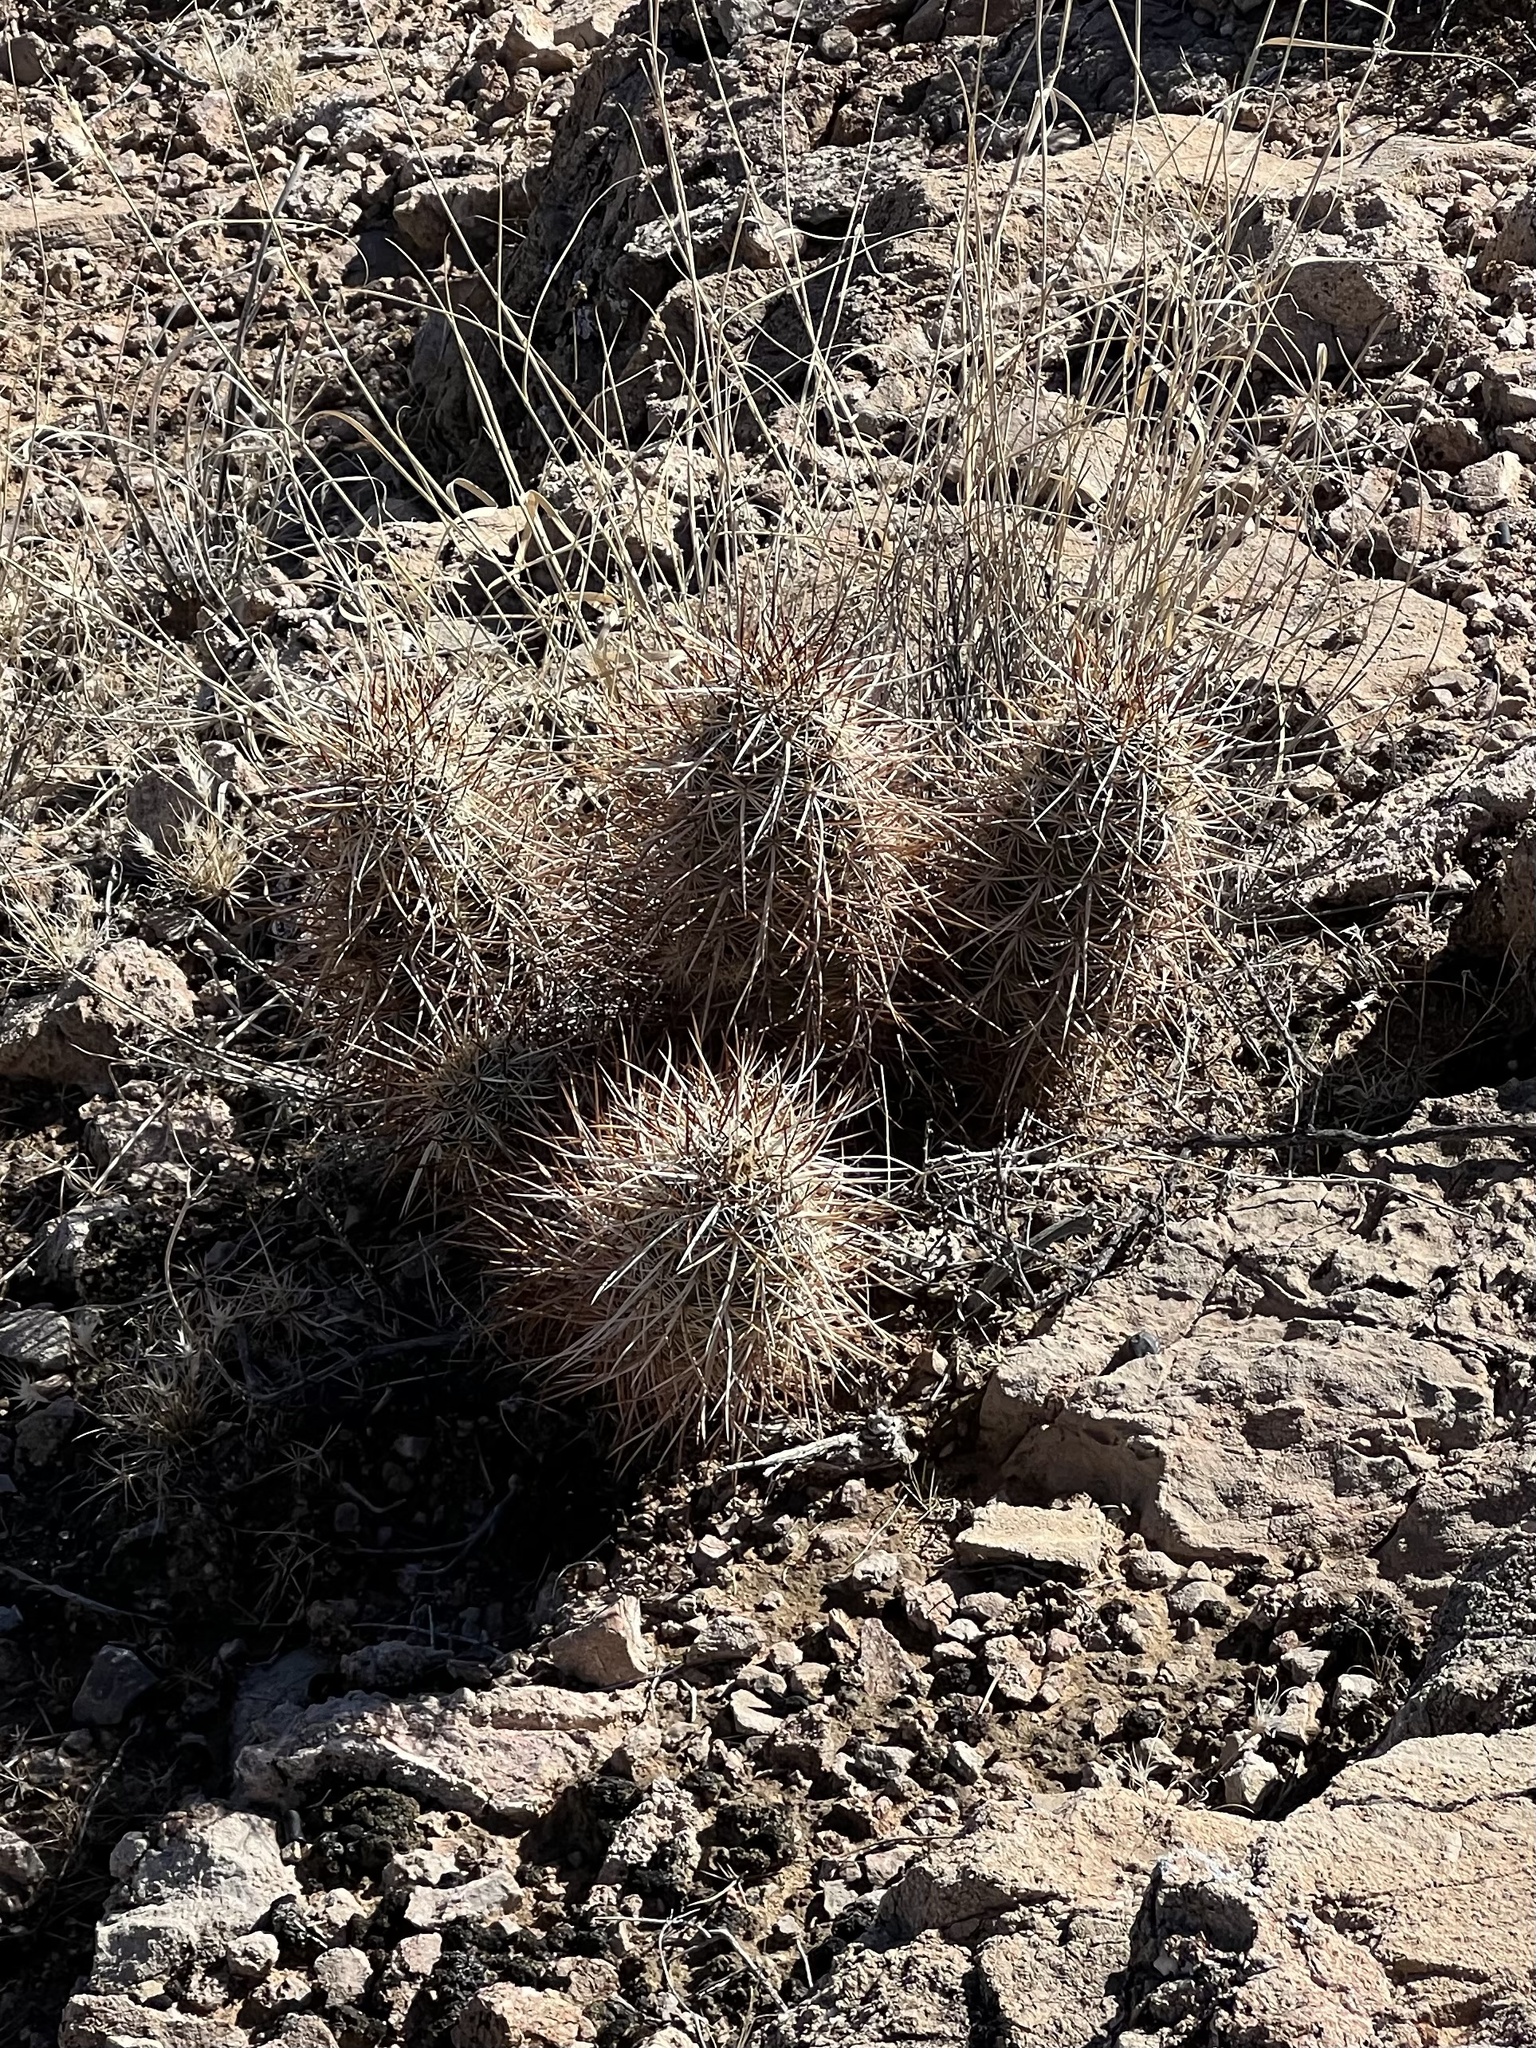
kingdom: Plantae
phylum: Tracheophyta
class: Magnoliopsida
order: Caryophyllales
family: Cactaceae
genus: Echinocereus
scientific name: Echinocereus engelmannii
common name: Engelmann's hedgehog cactus
